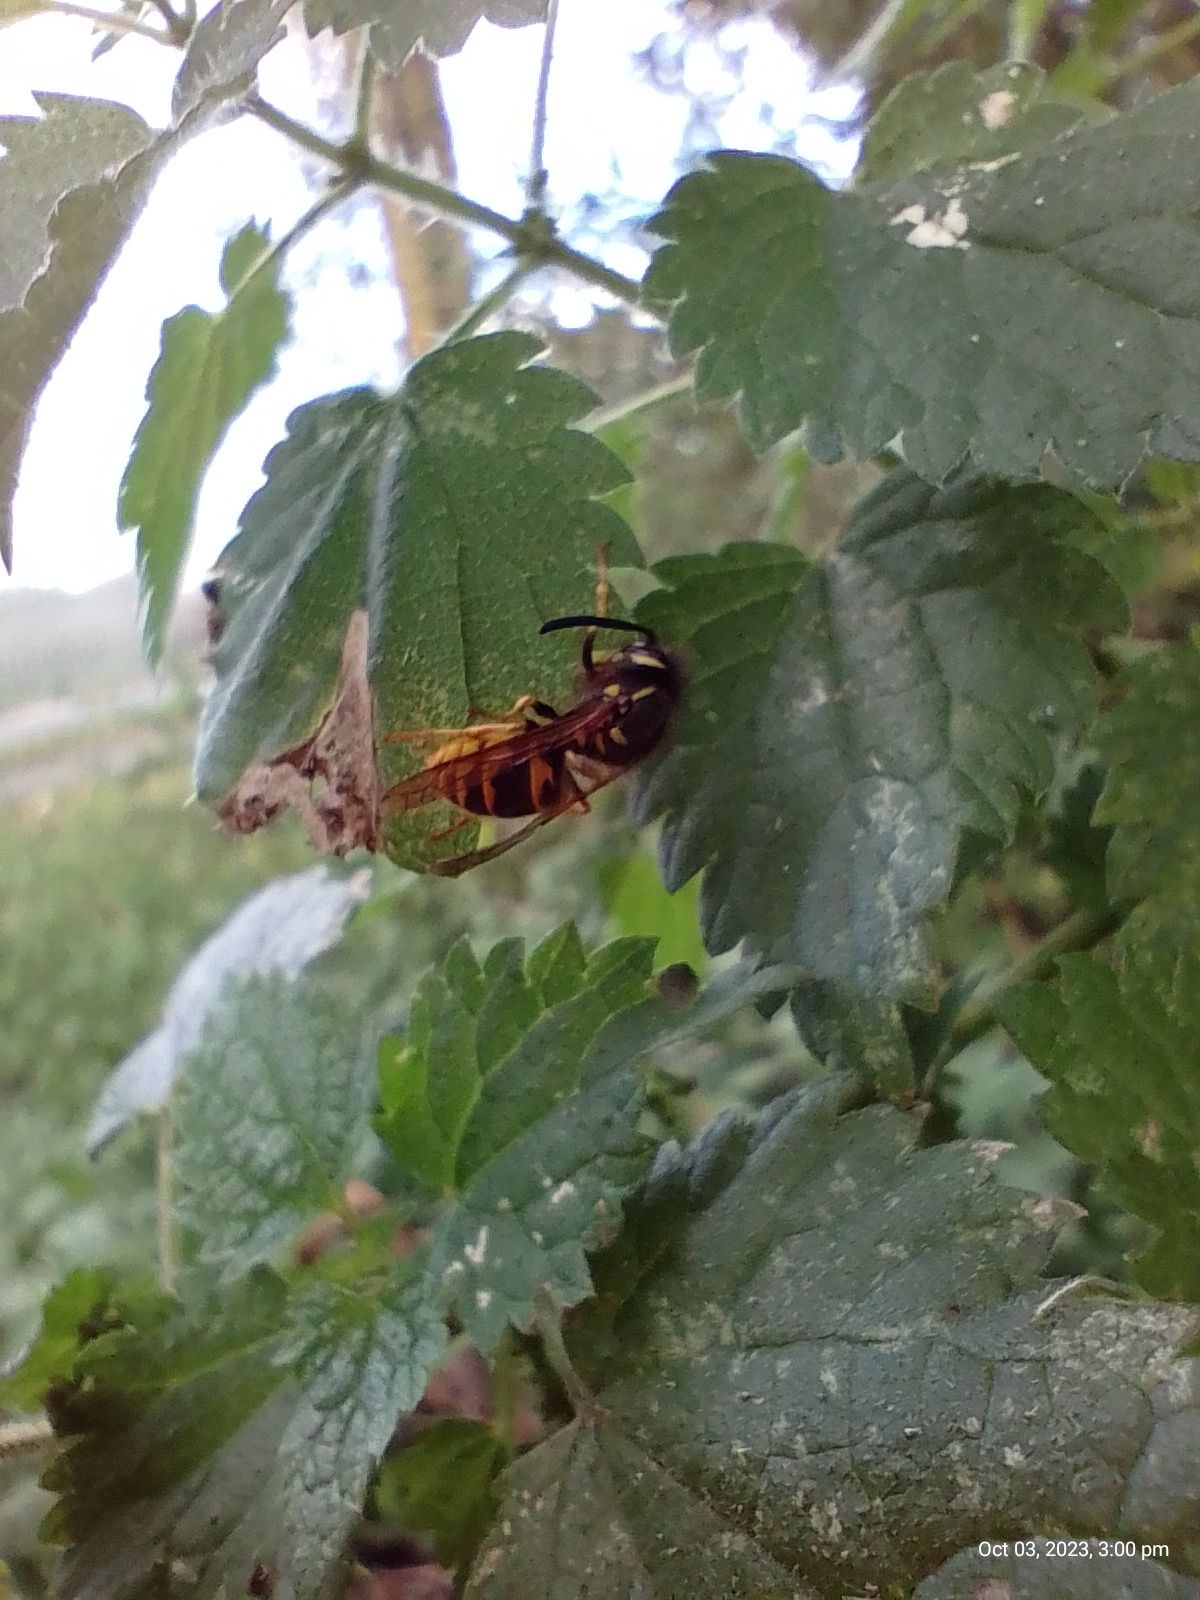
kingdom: Animalia
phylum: Arthropoda
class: Insecta
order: Hymenoptera
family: Vespidae
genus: Vespula
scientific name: Vespula vulgaris
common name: Common wasp
